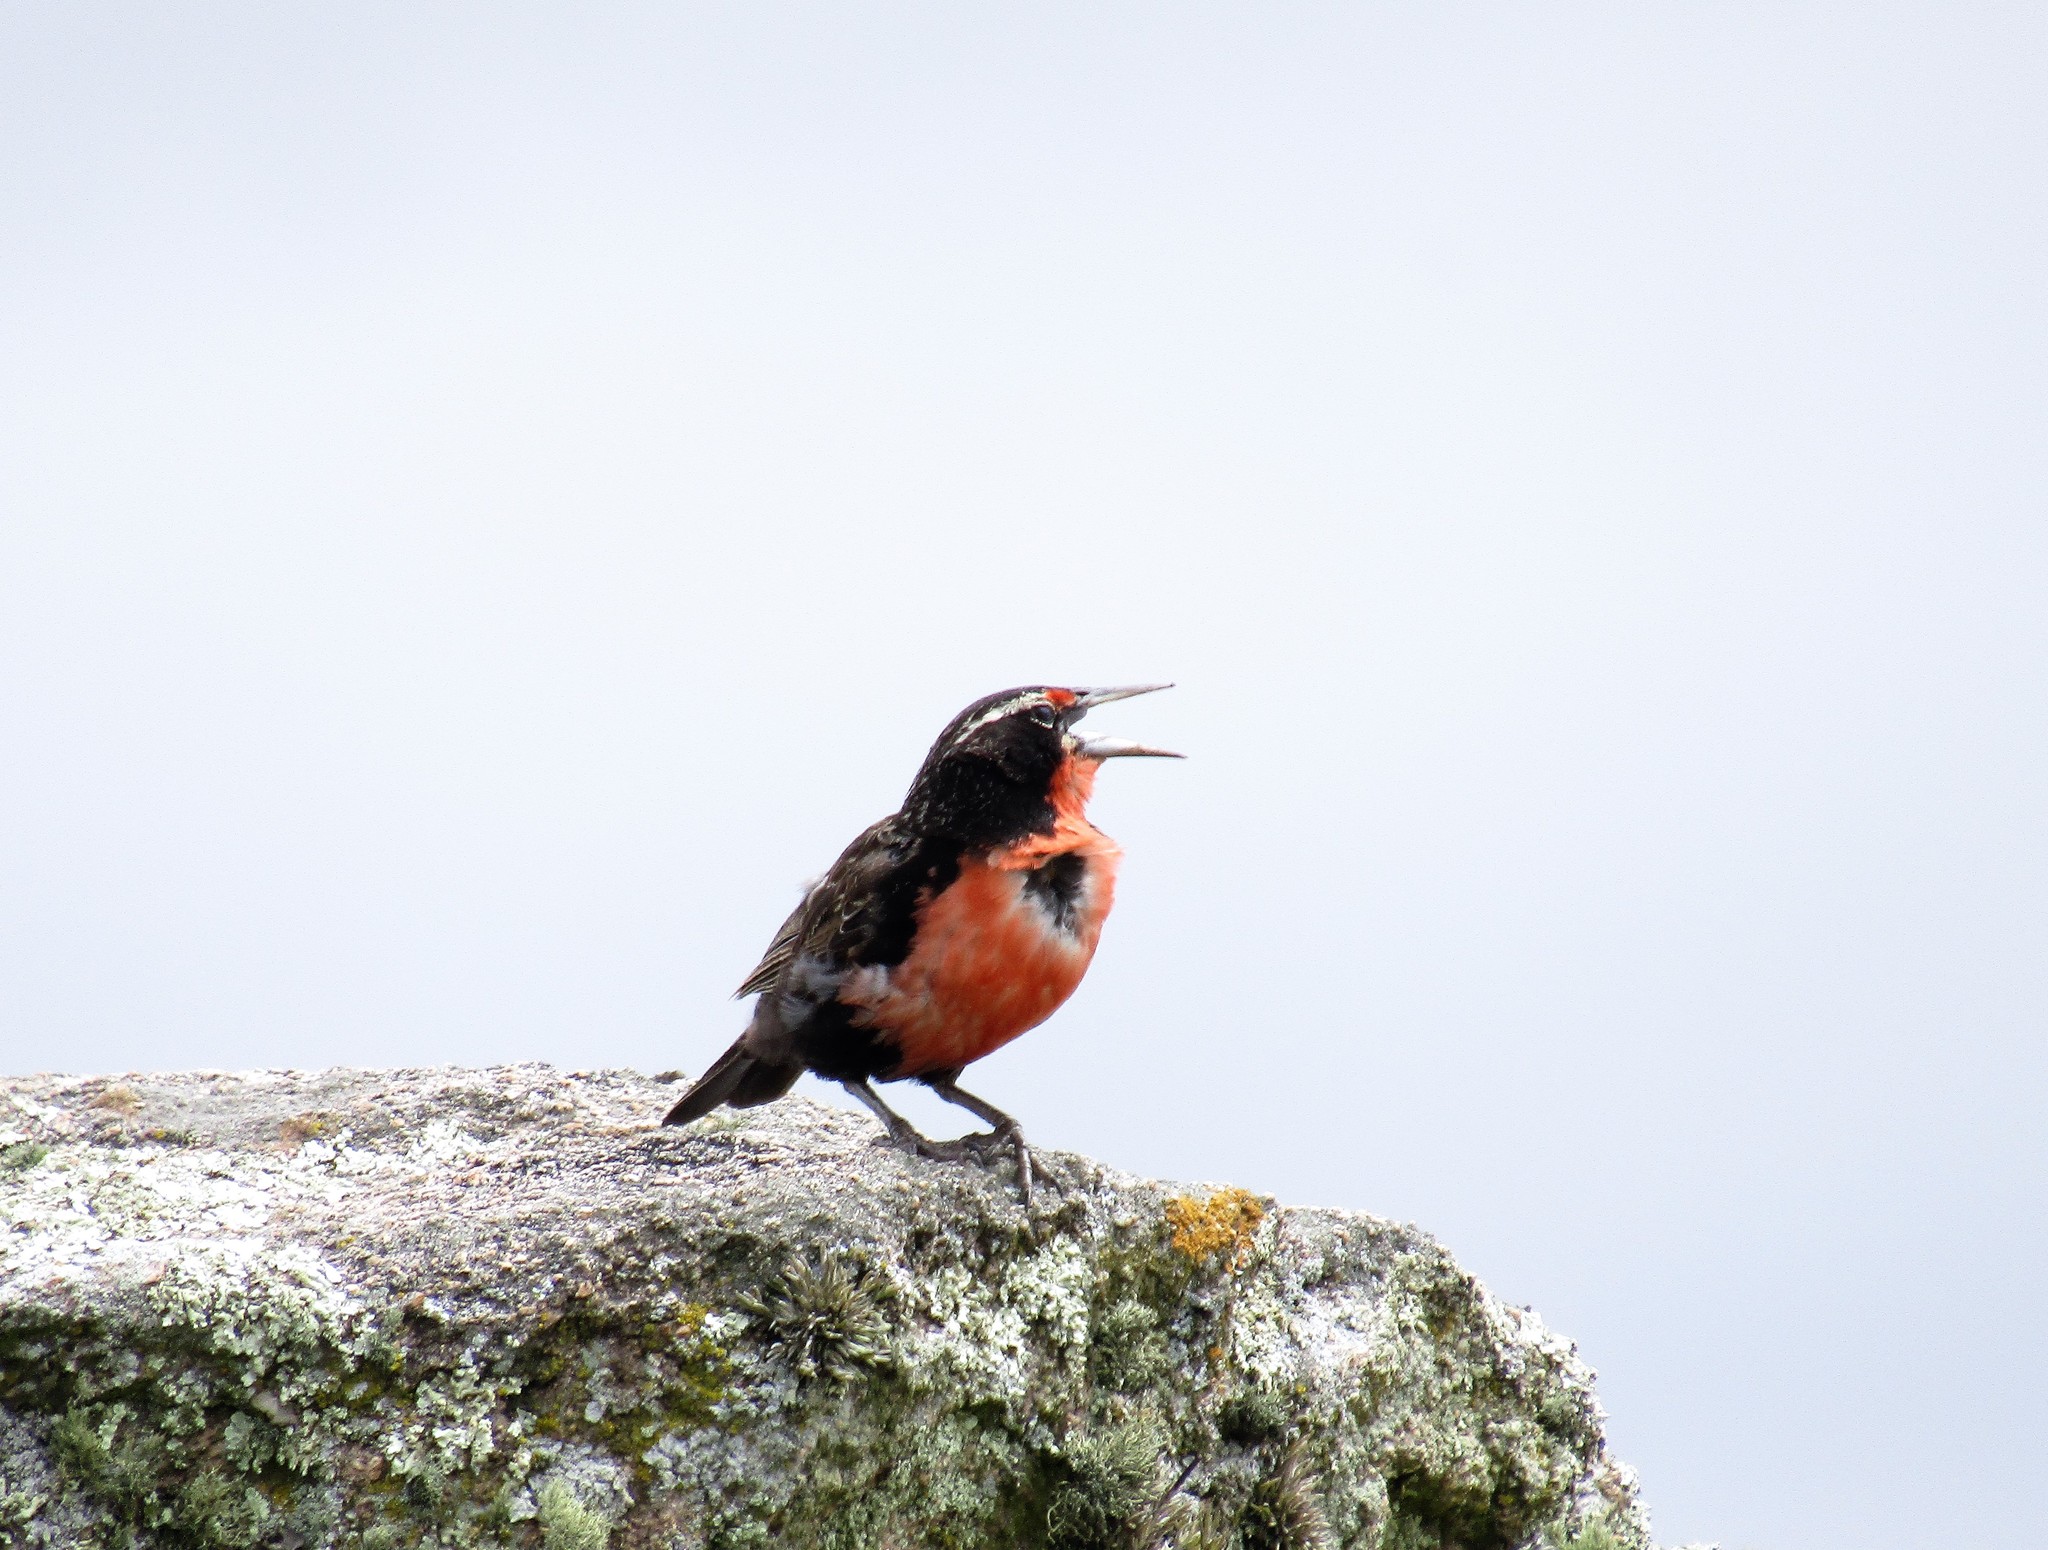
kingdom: Animalia
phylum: Chordata
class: Aves
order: Passeriformes
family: Icteridae
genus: Sturnella
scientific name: Sturnella loyca
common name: Long-tailed meadowlark
